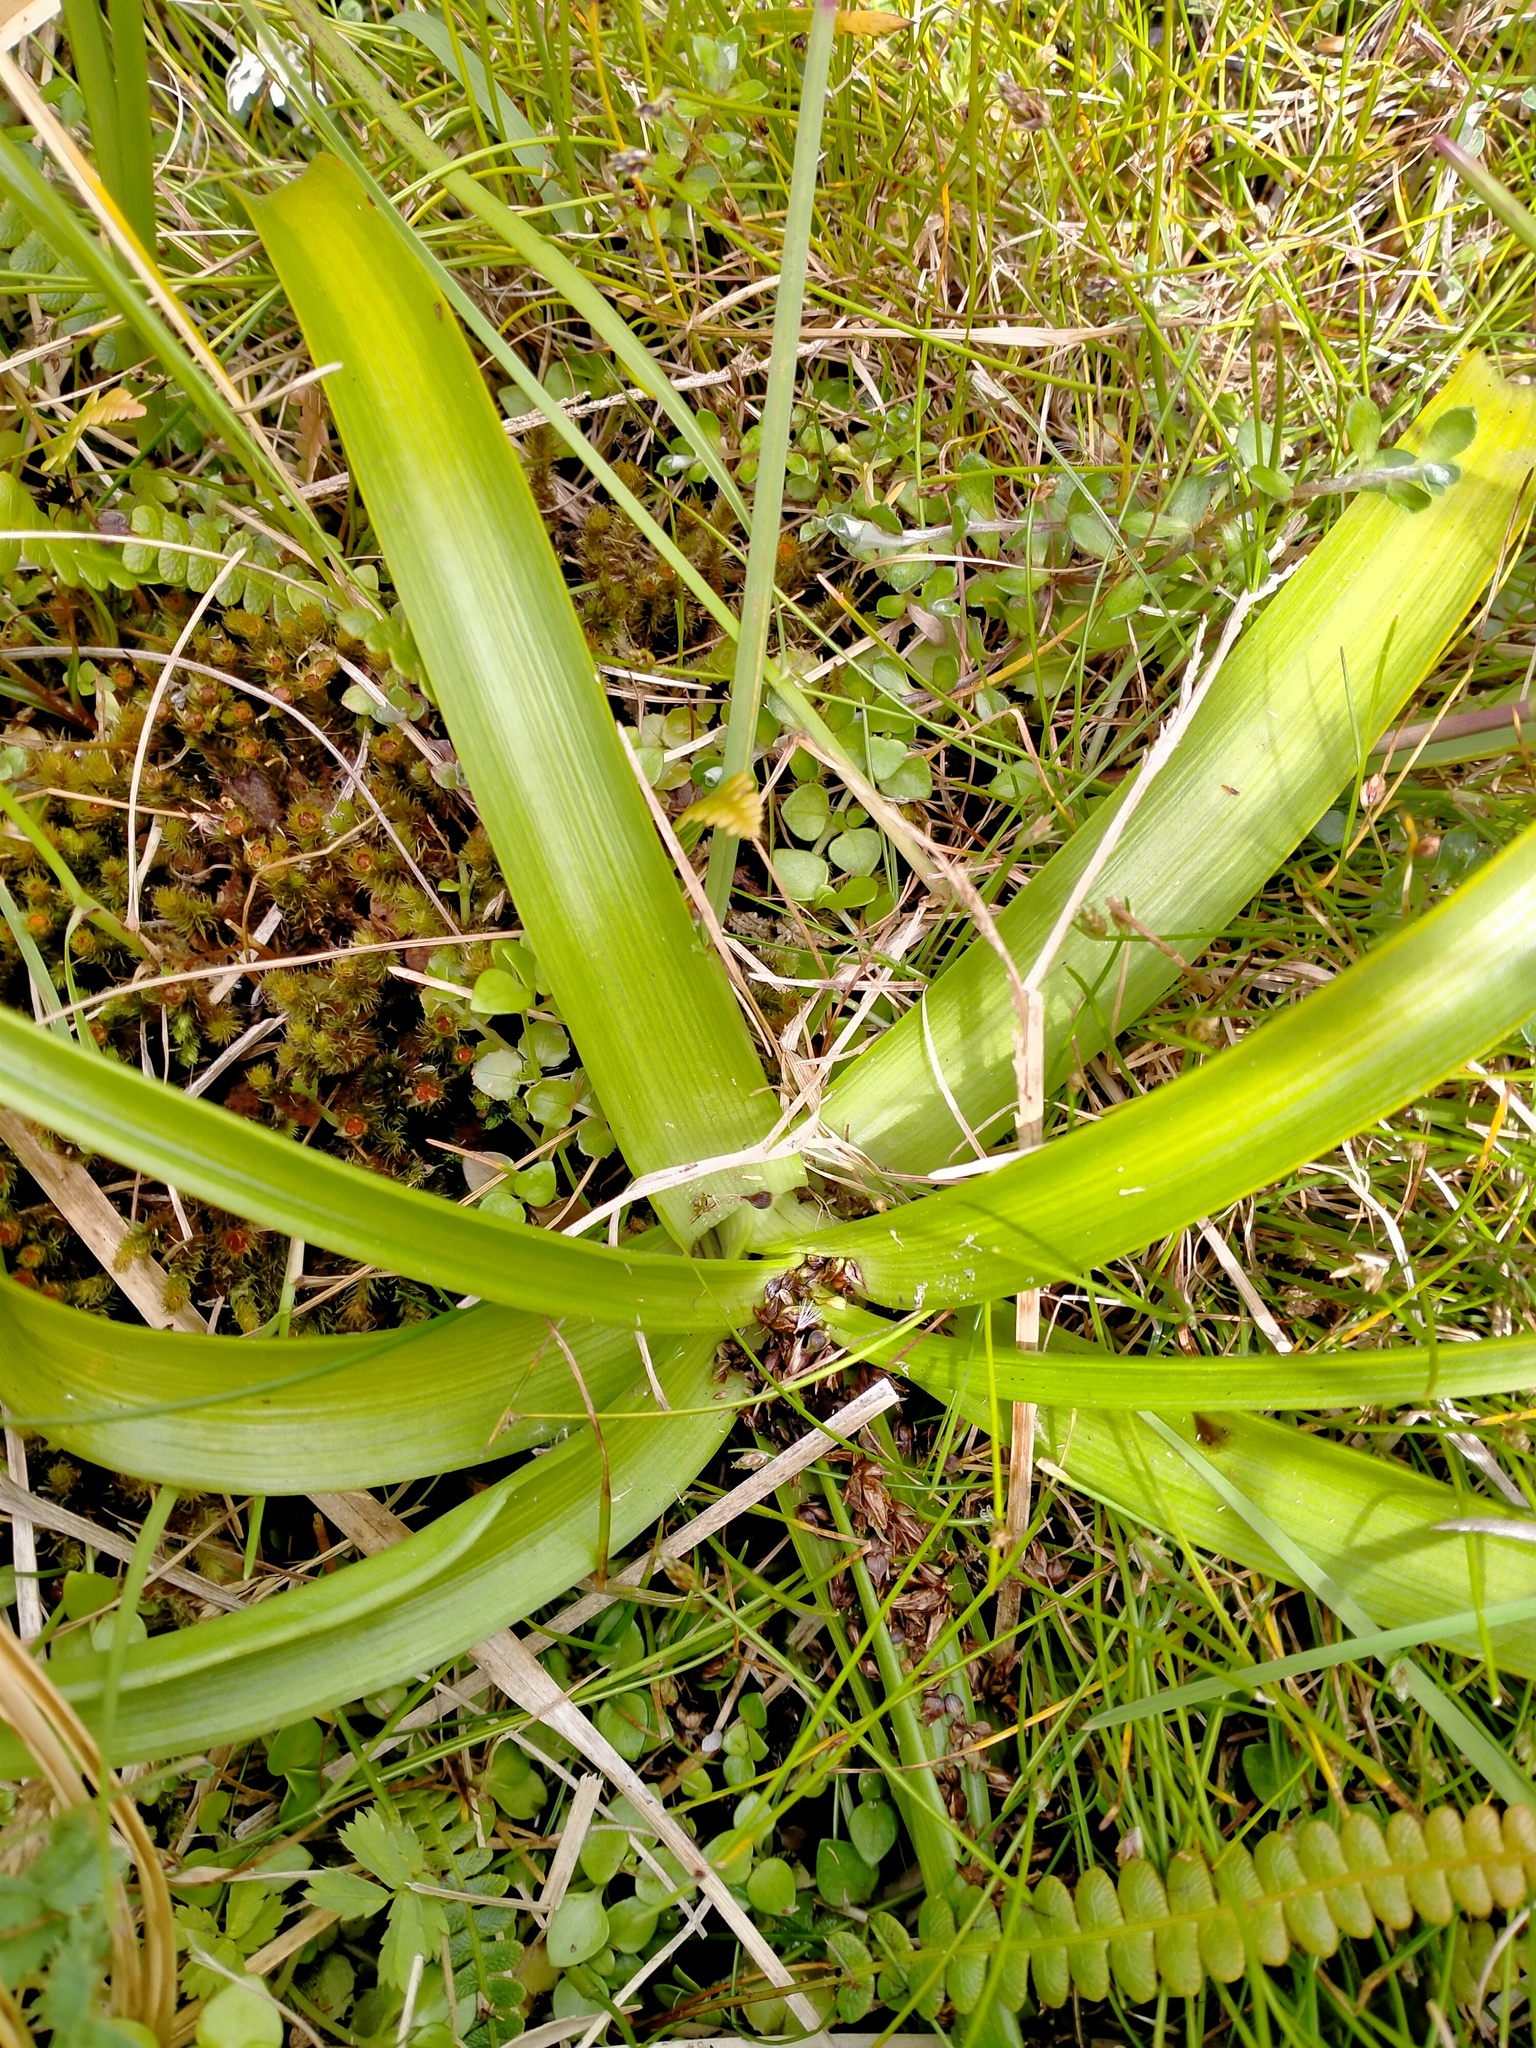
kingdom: Plantae
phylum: Tracheophyta
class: Liliopsida
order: Asparagales
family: Asphodelaceae
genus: Bulbinella
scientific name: Bulbinella rossii
